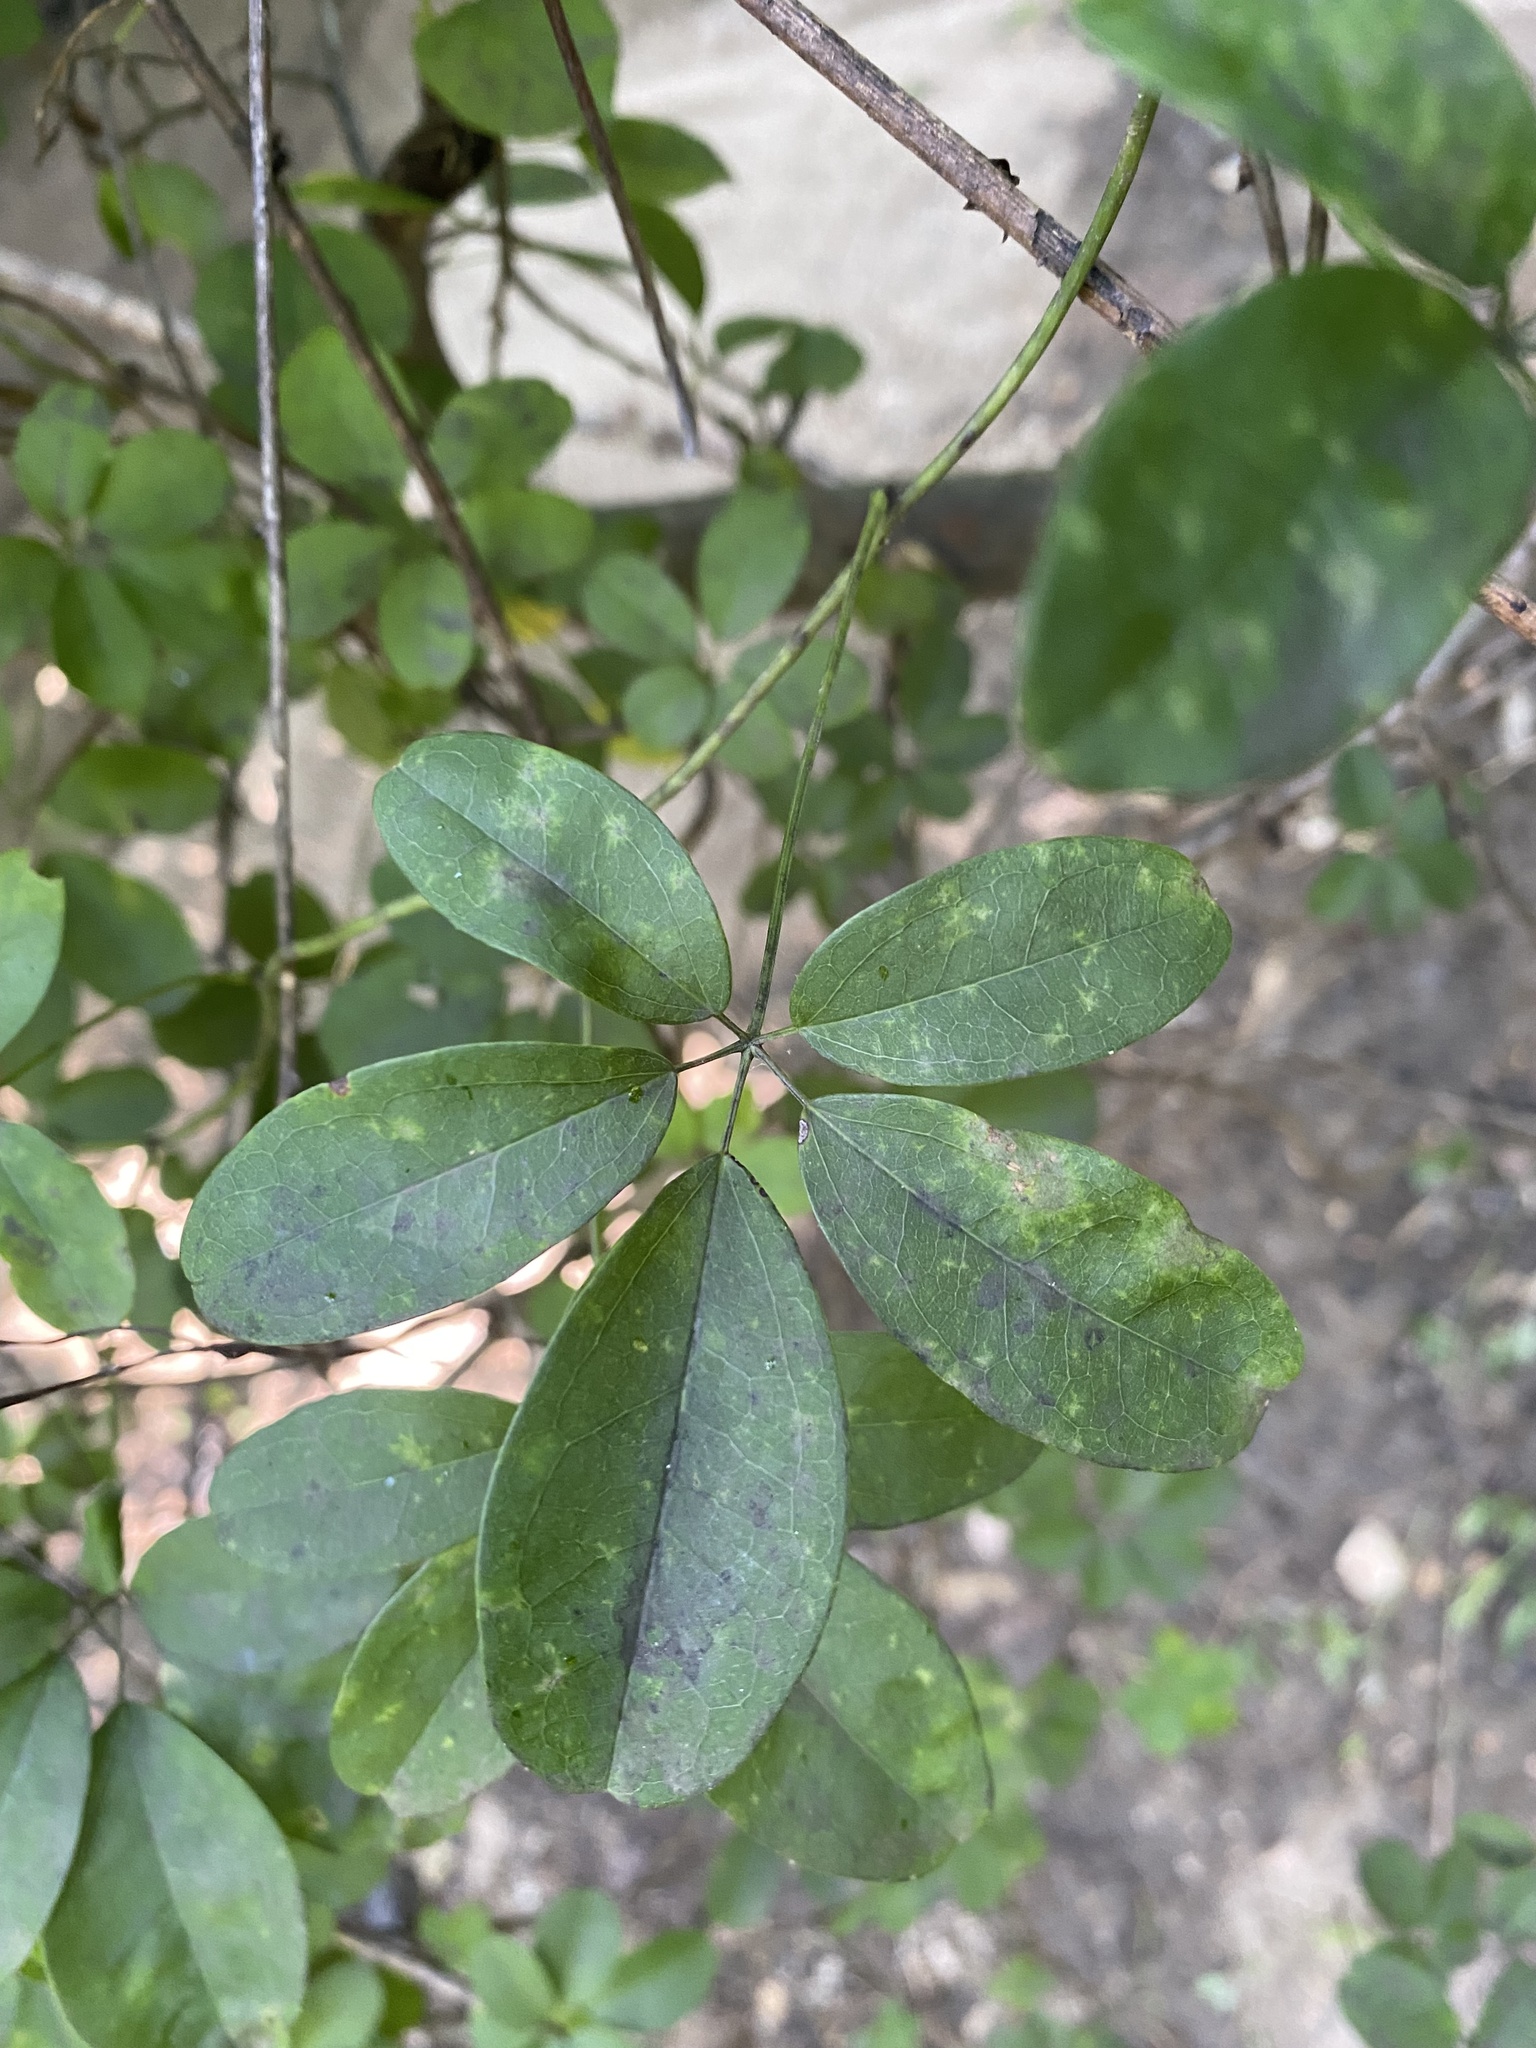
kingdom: Plantae
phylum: Tracheophyta
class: Magnoliopsida
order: Ranunculales
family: Lardizabalaceae
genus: Akebia
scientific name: Akebia quinata
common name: Five-leaf akebia
